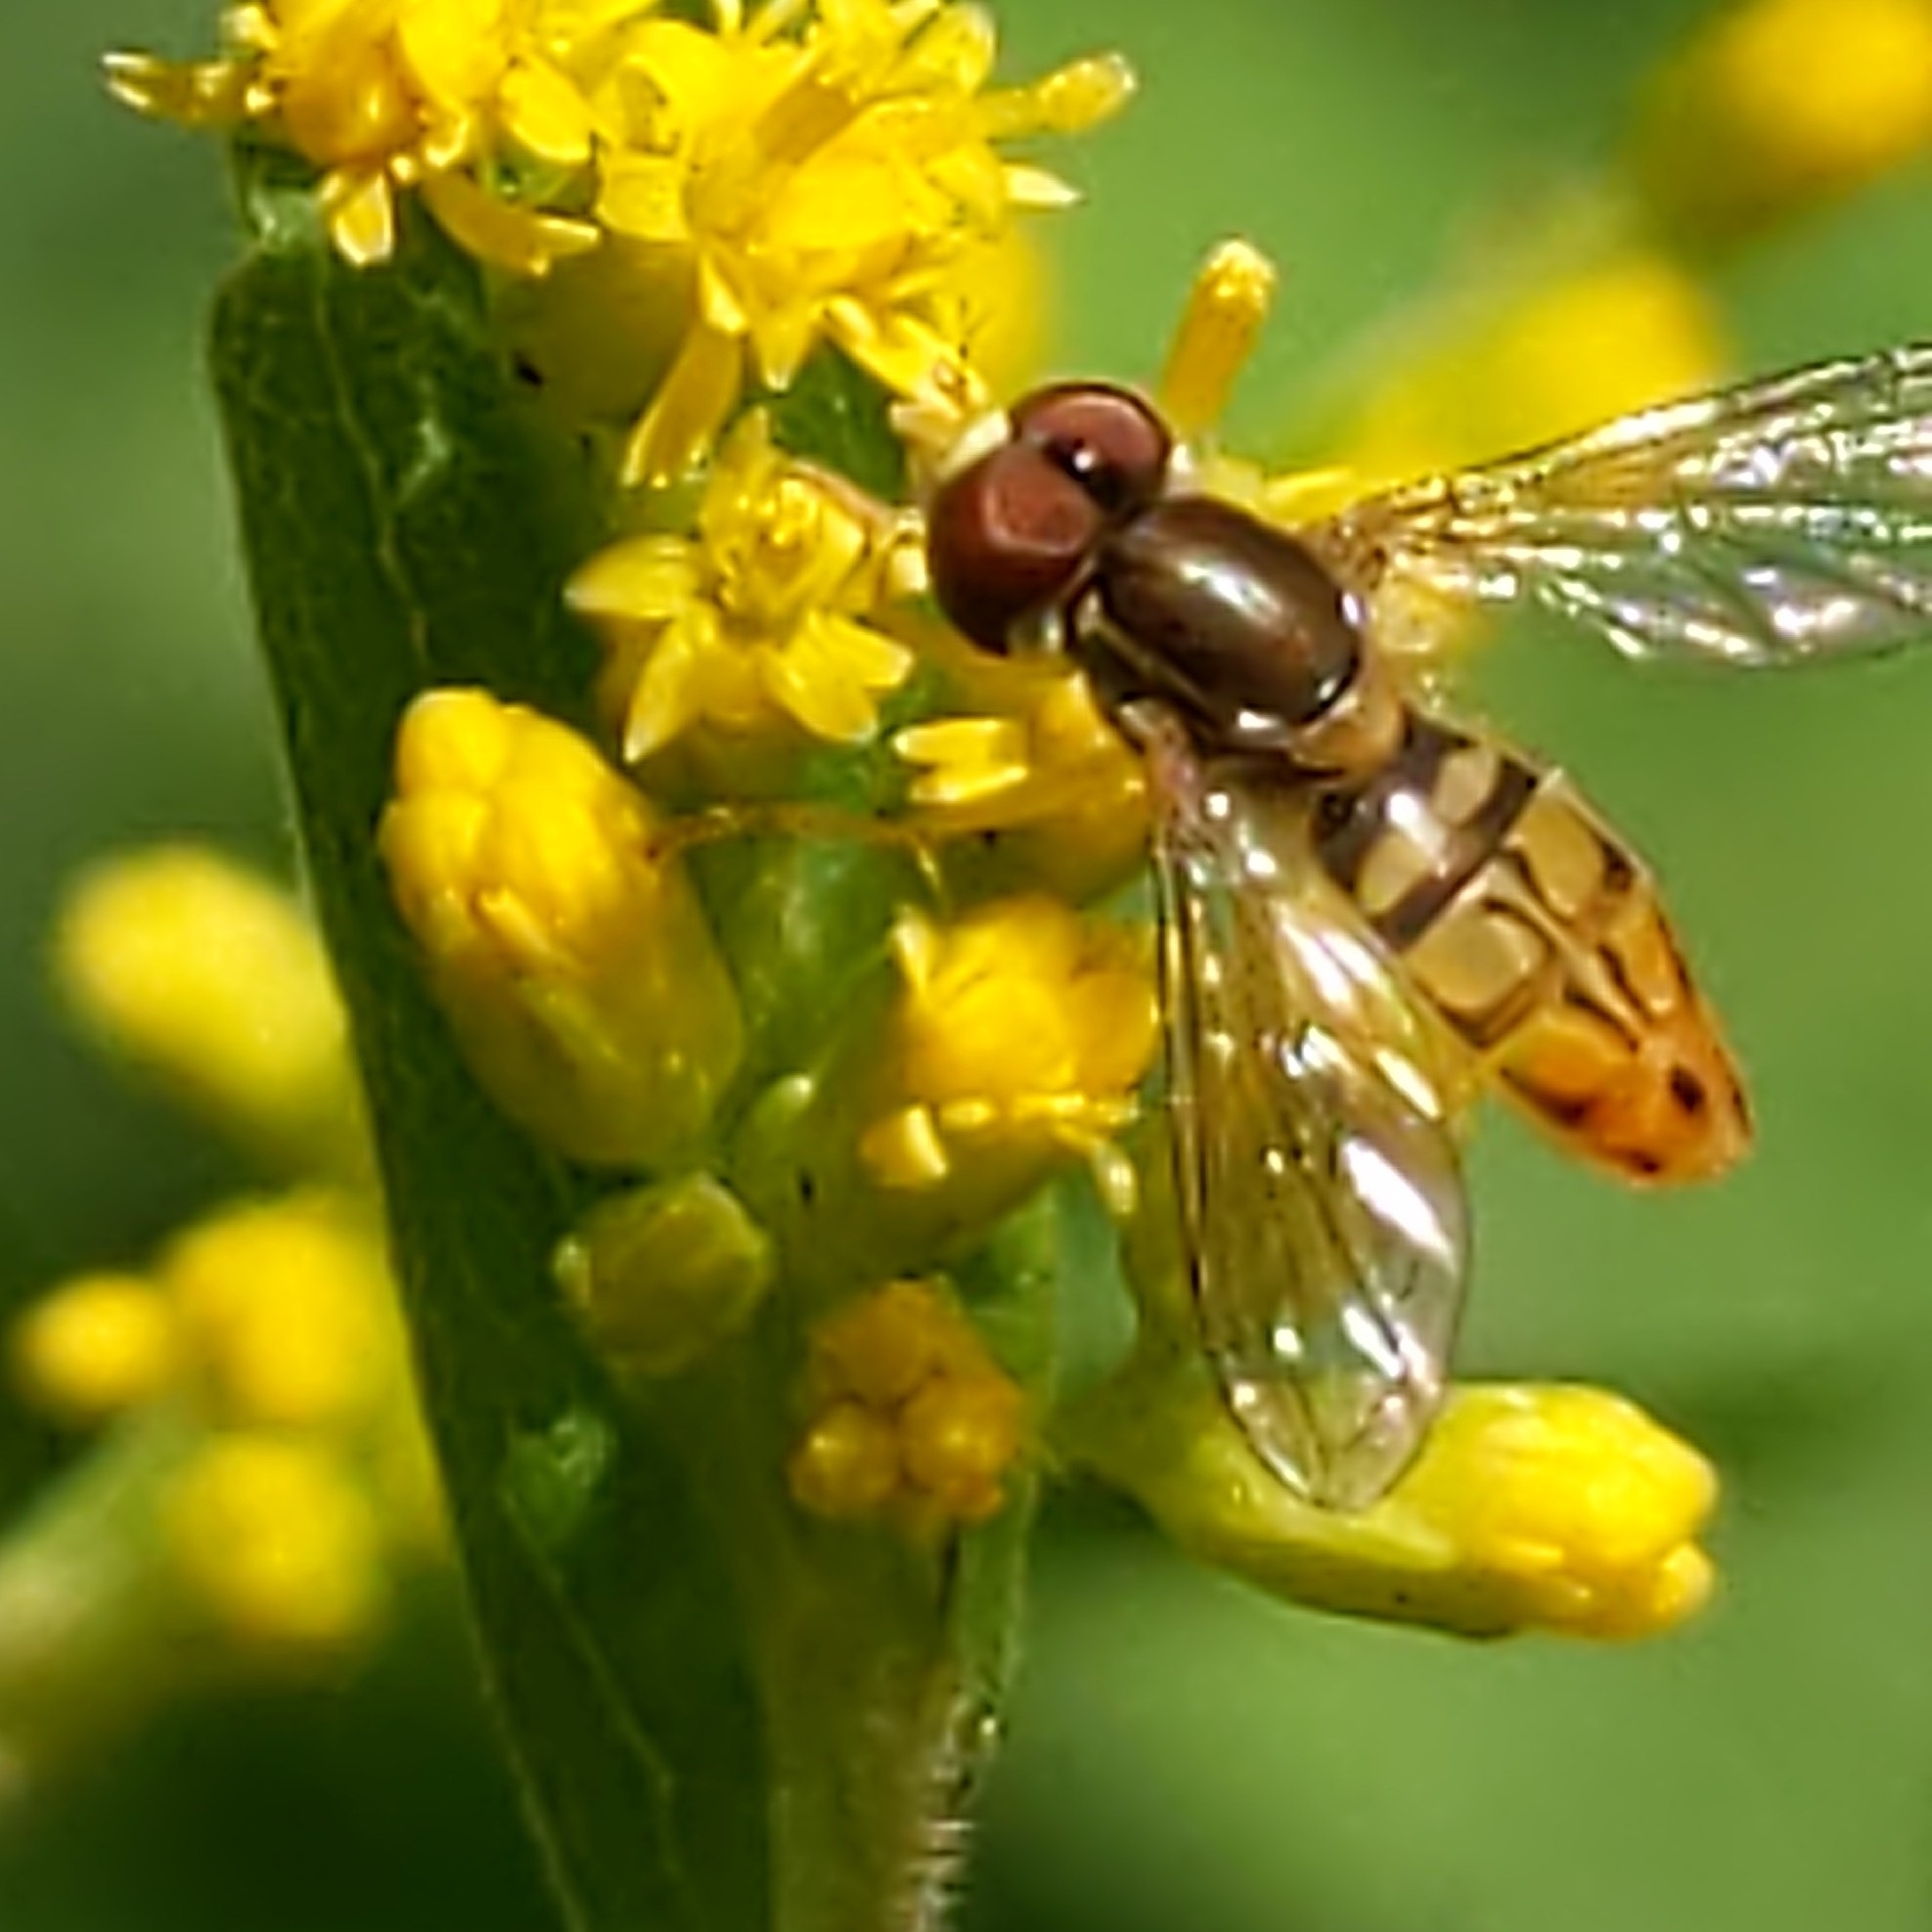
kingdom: Animalia
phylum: Arthropoda
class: Insecta
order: Diptera
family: Syrphidae
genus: Toxomerus
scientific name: Toxomerus marginatus
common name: Syrphid fly
